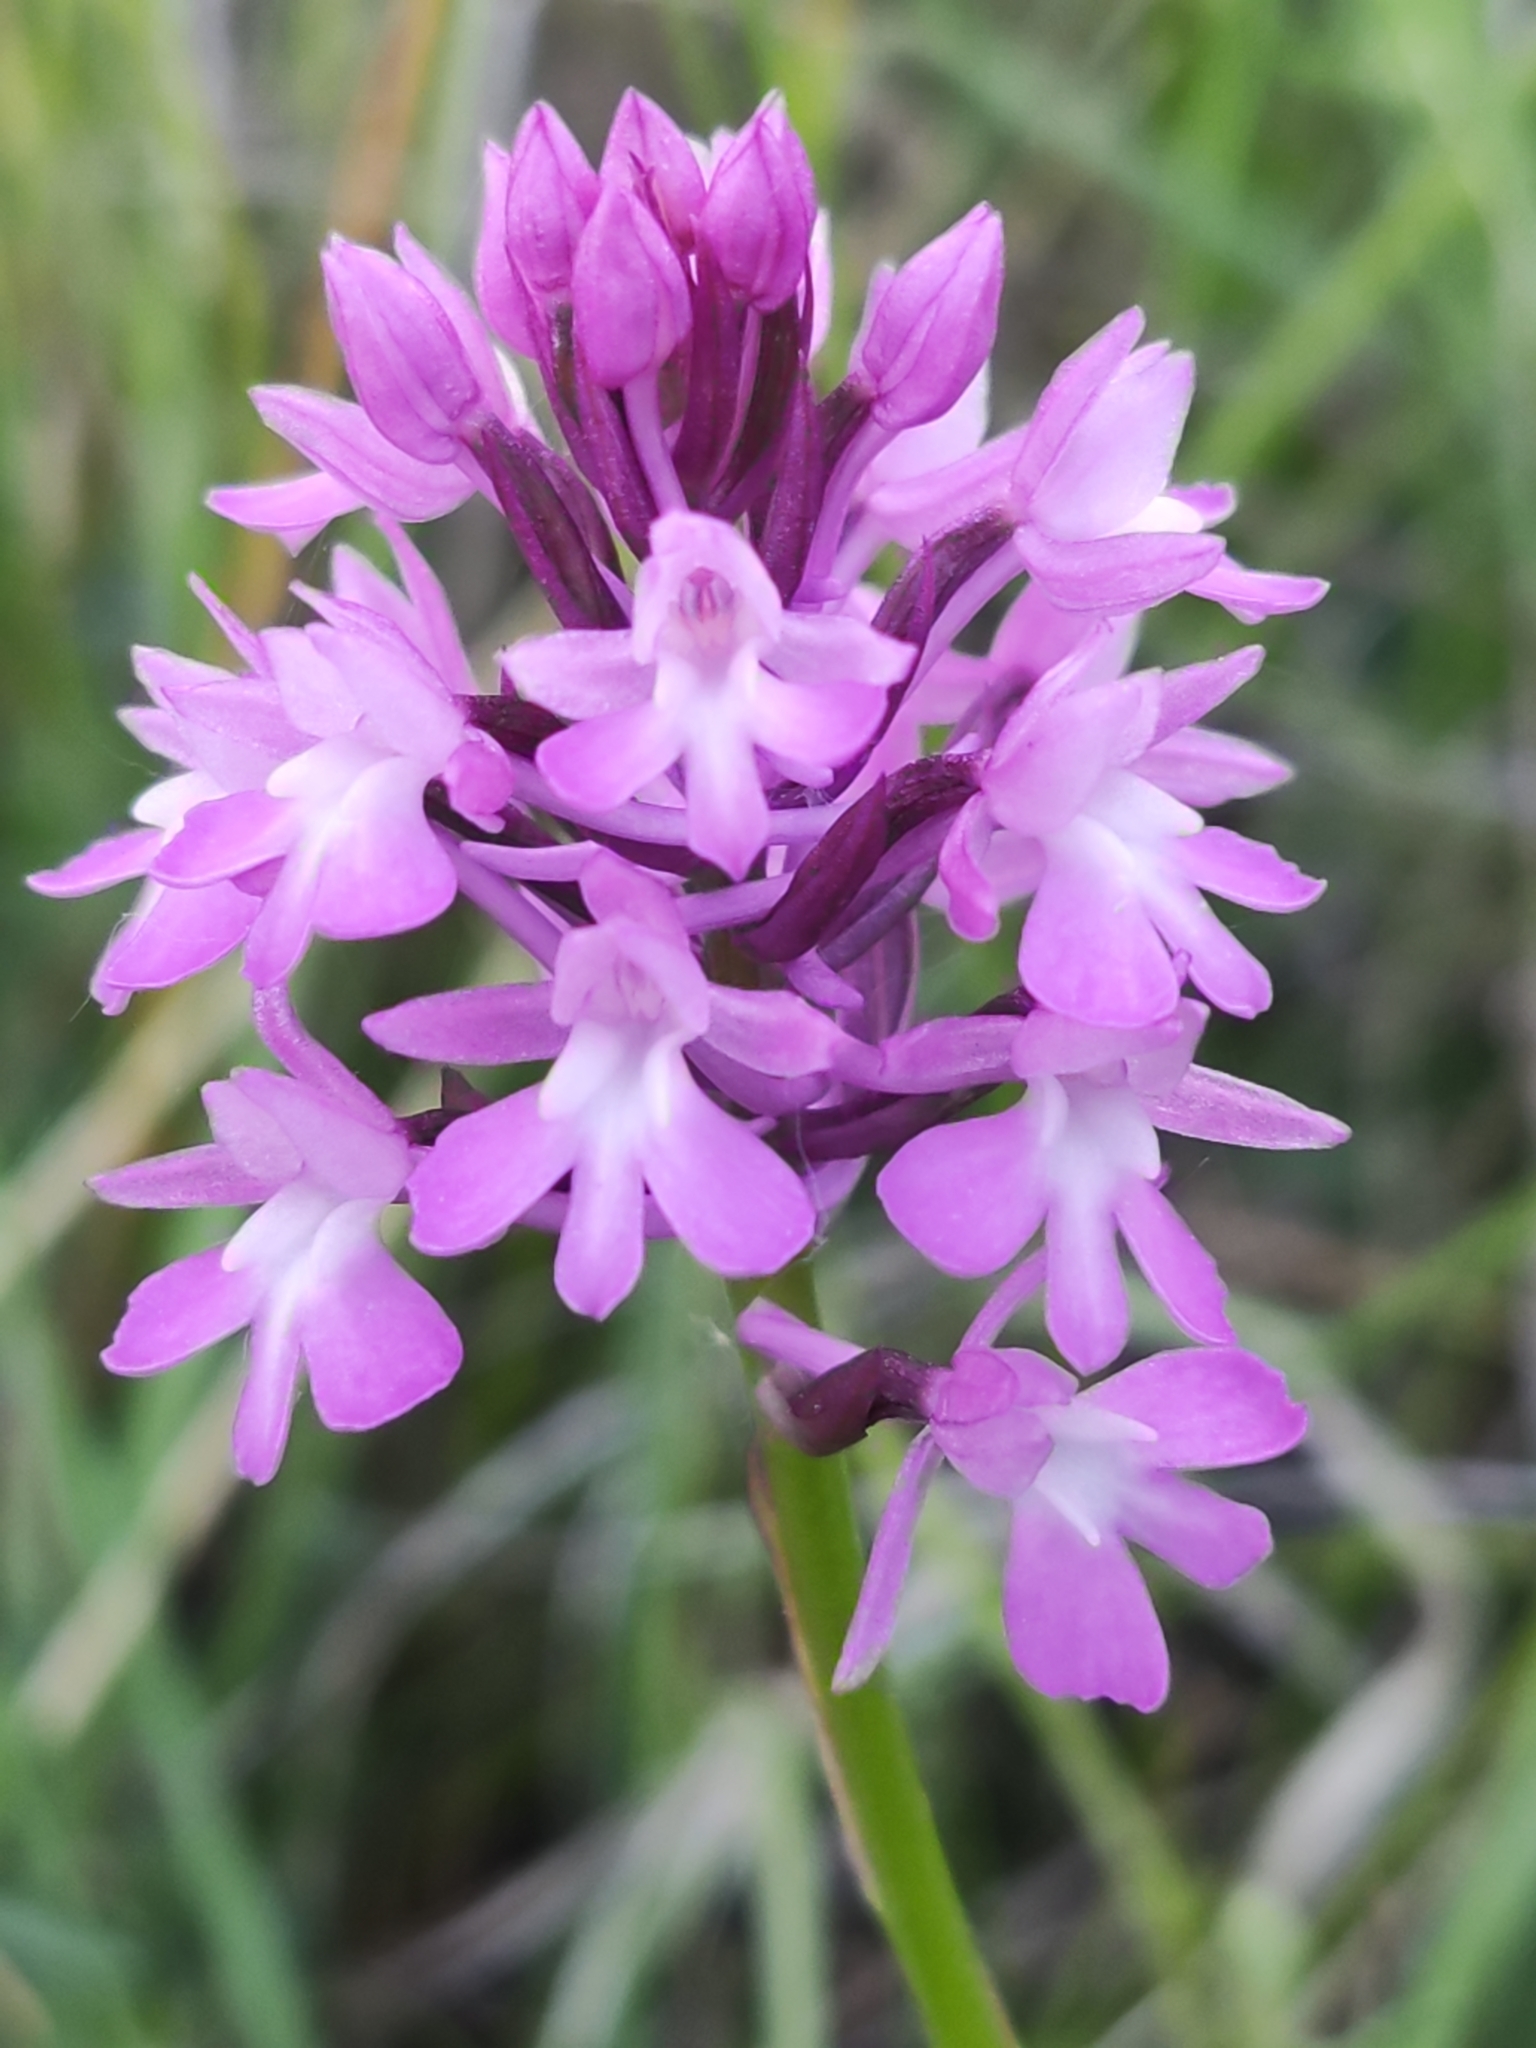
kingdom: Plantae
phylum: Tracheophyta
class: Liliopsida
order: Asparagales
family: Orchidaceae
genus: Anacamptis
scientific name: Anacamptis pyramidalis
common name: Pyramidal orchid
